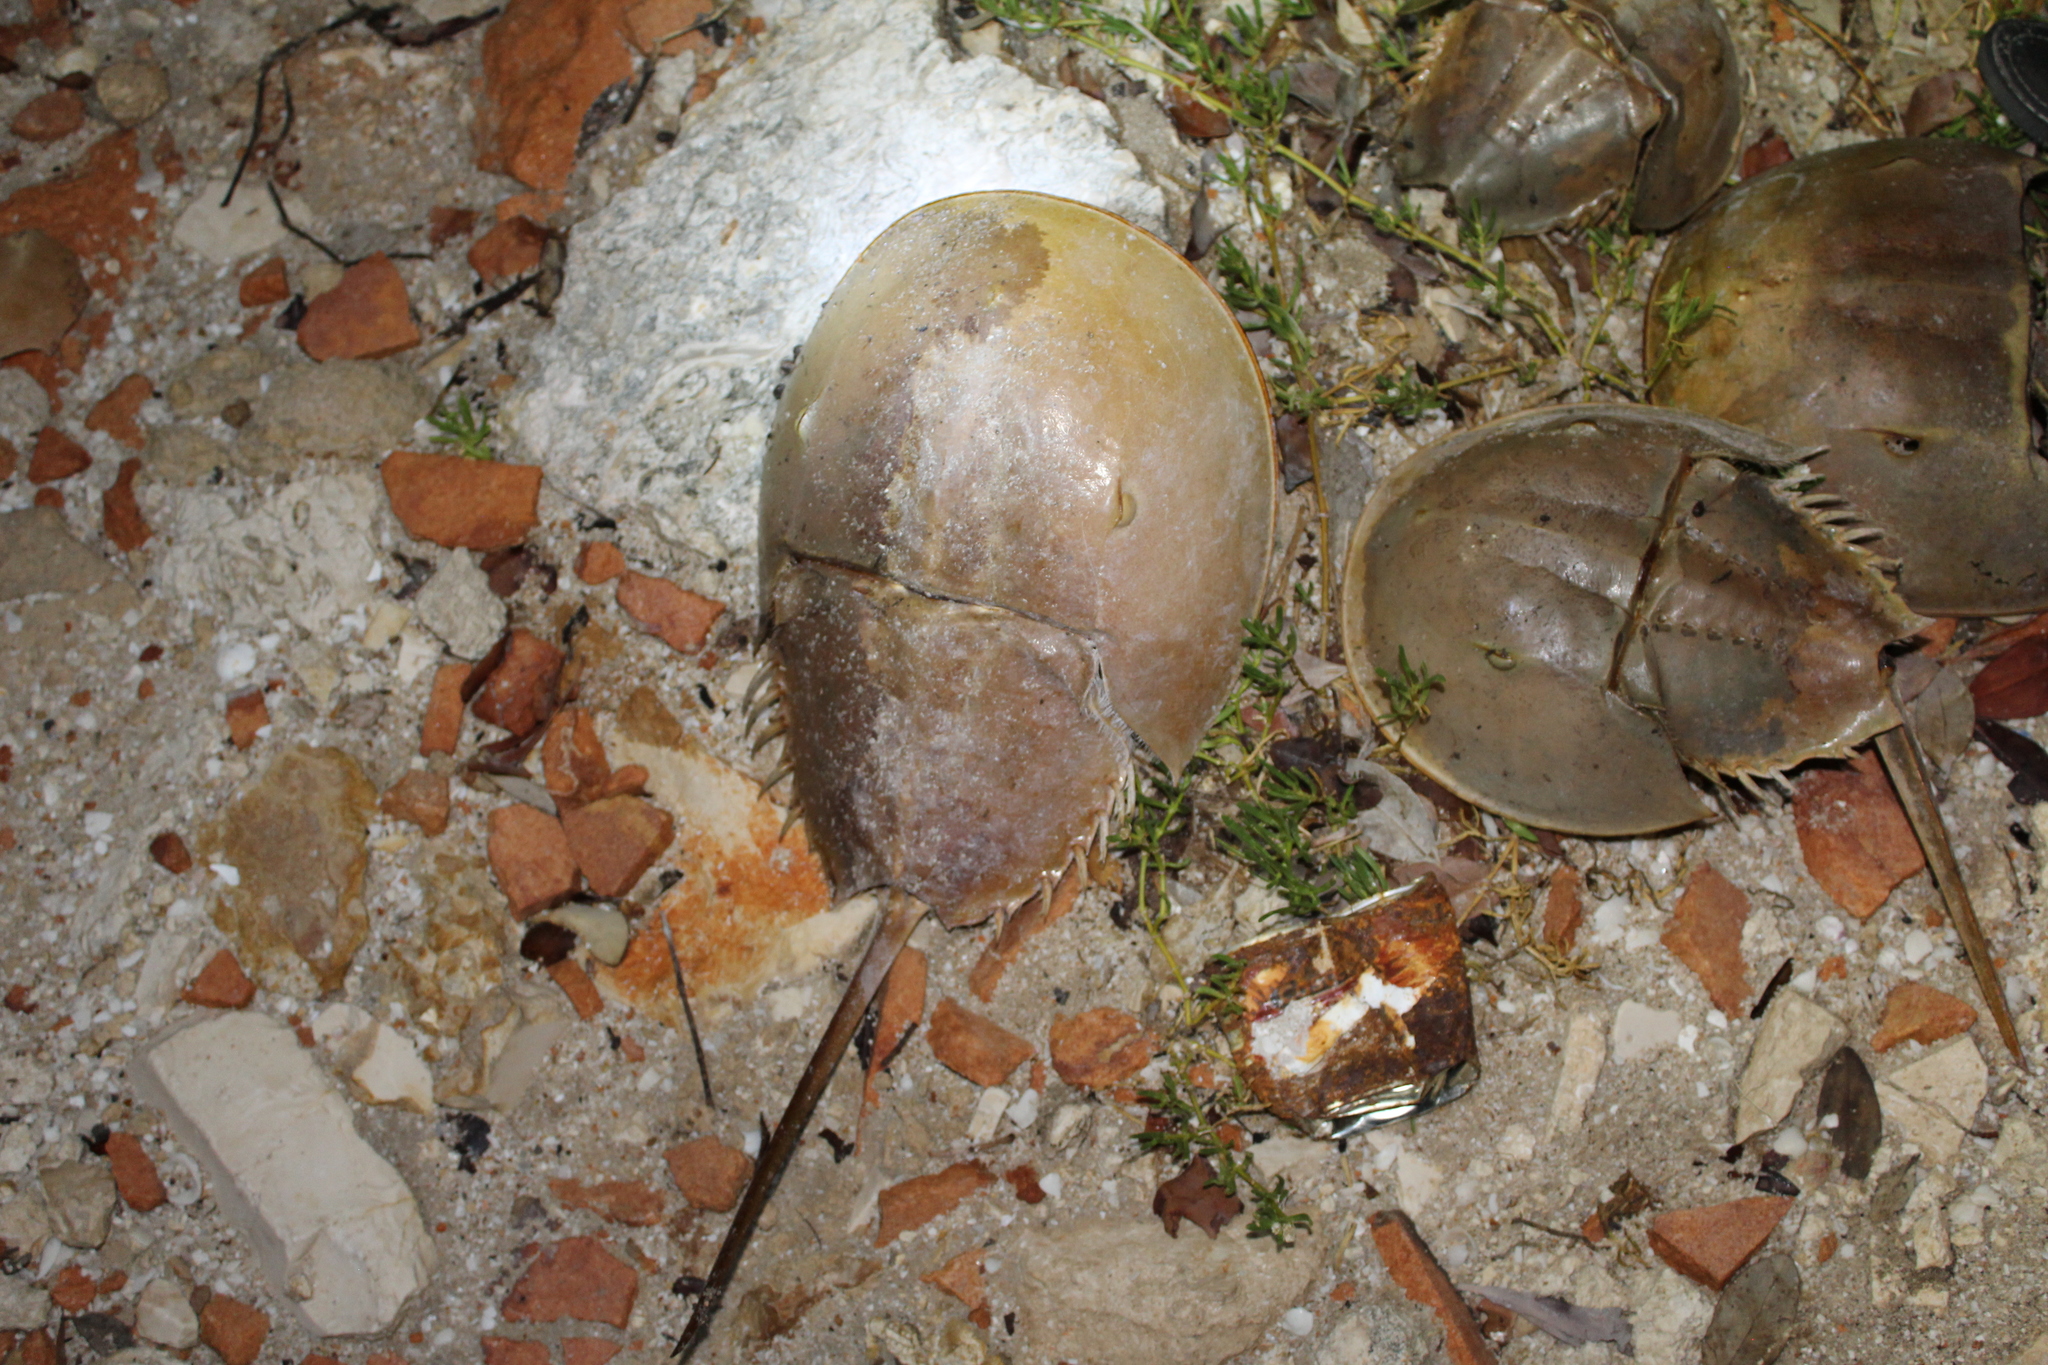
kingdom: Animalia
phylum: Arthropoda
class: Merostomata
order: Xiphosurida
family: Limulidae
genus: Limulus
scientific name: Limulus polyphemus
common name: Horseshoe crab
